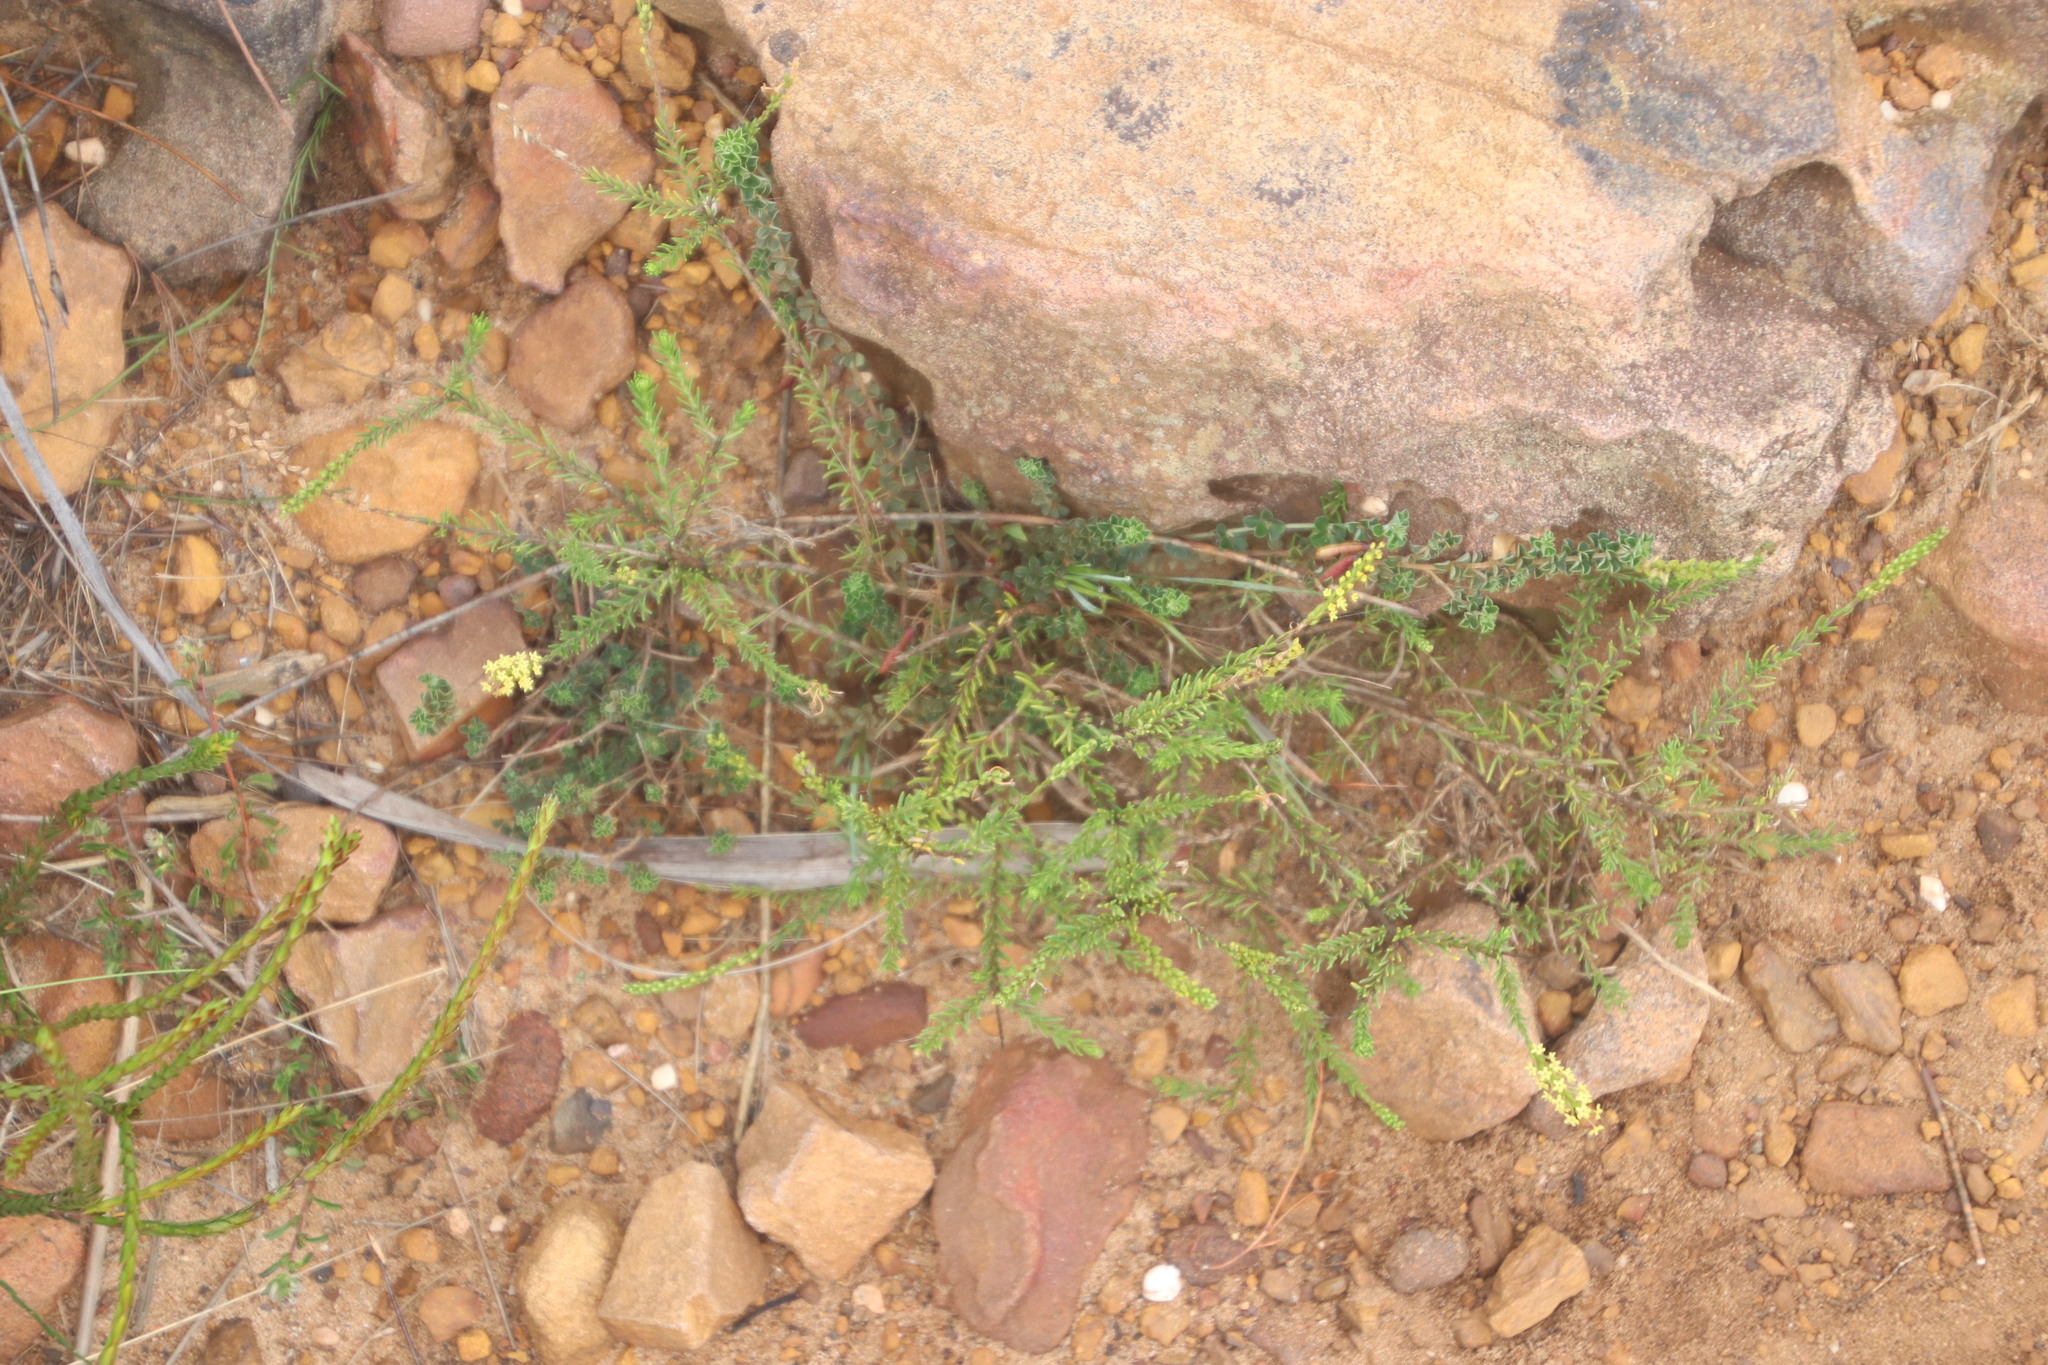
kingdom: Plantae
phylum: Tracheophyta
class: Magnoliopsida
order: Lamiales
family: Scrophulariaceae
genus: Microdon
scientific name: Microdon dubius
